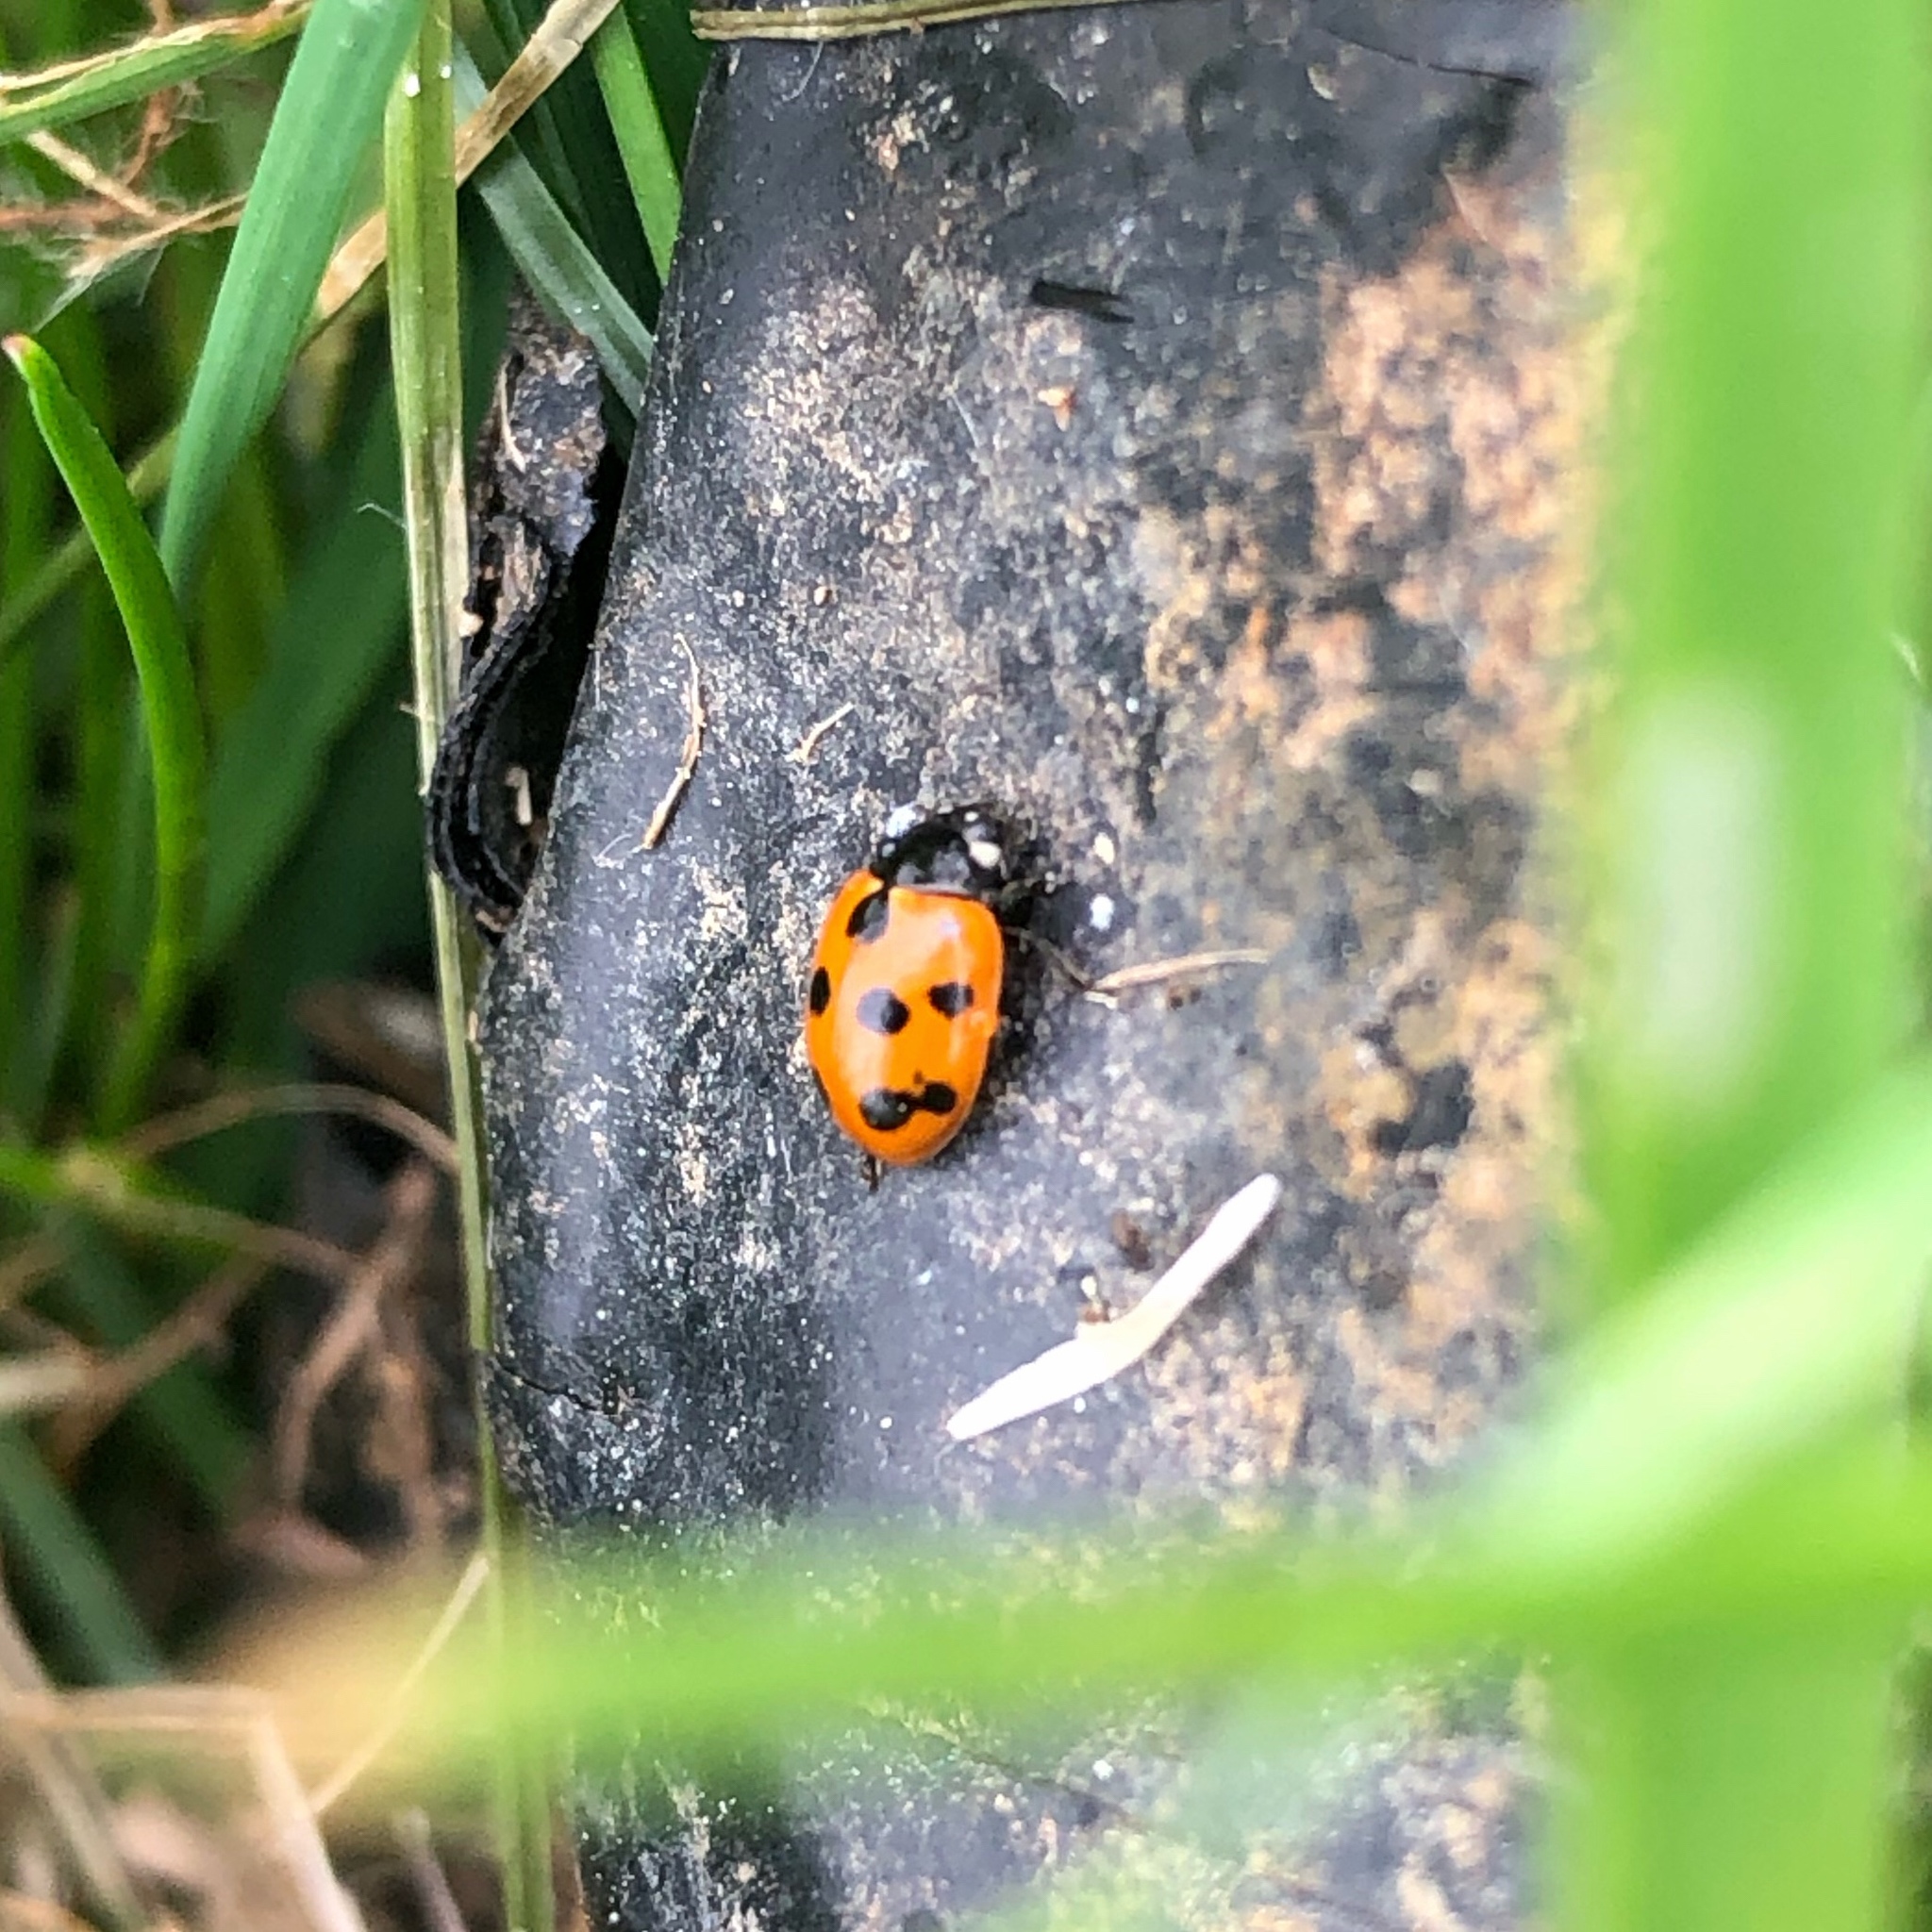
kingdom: Animalia
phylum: Arthropoda
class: Insecta
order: Coleoptera
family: Coccinellidae
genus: Coccinella
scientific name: Coccinella undecimpunctata
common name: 11-spot ladybird
